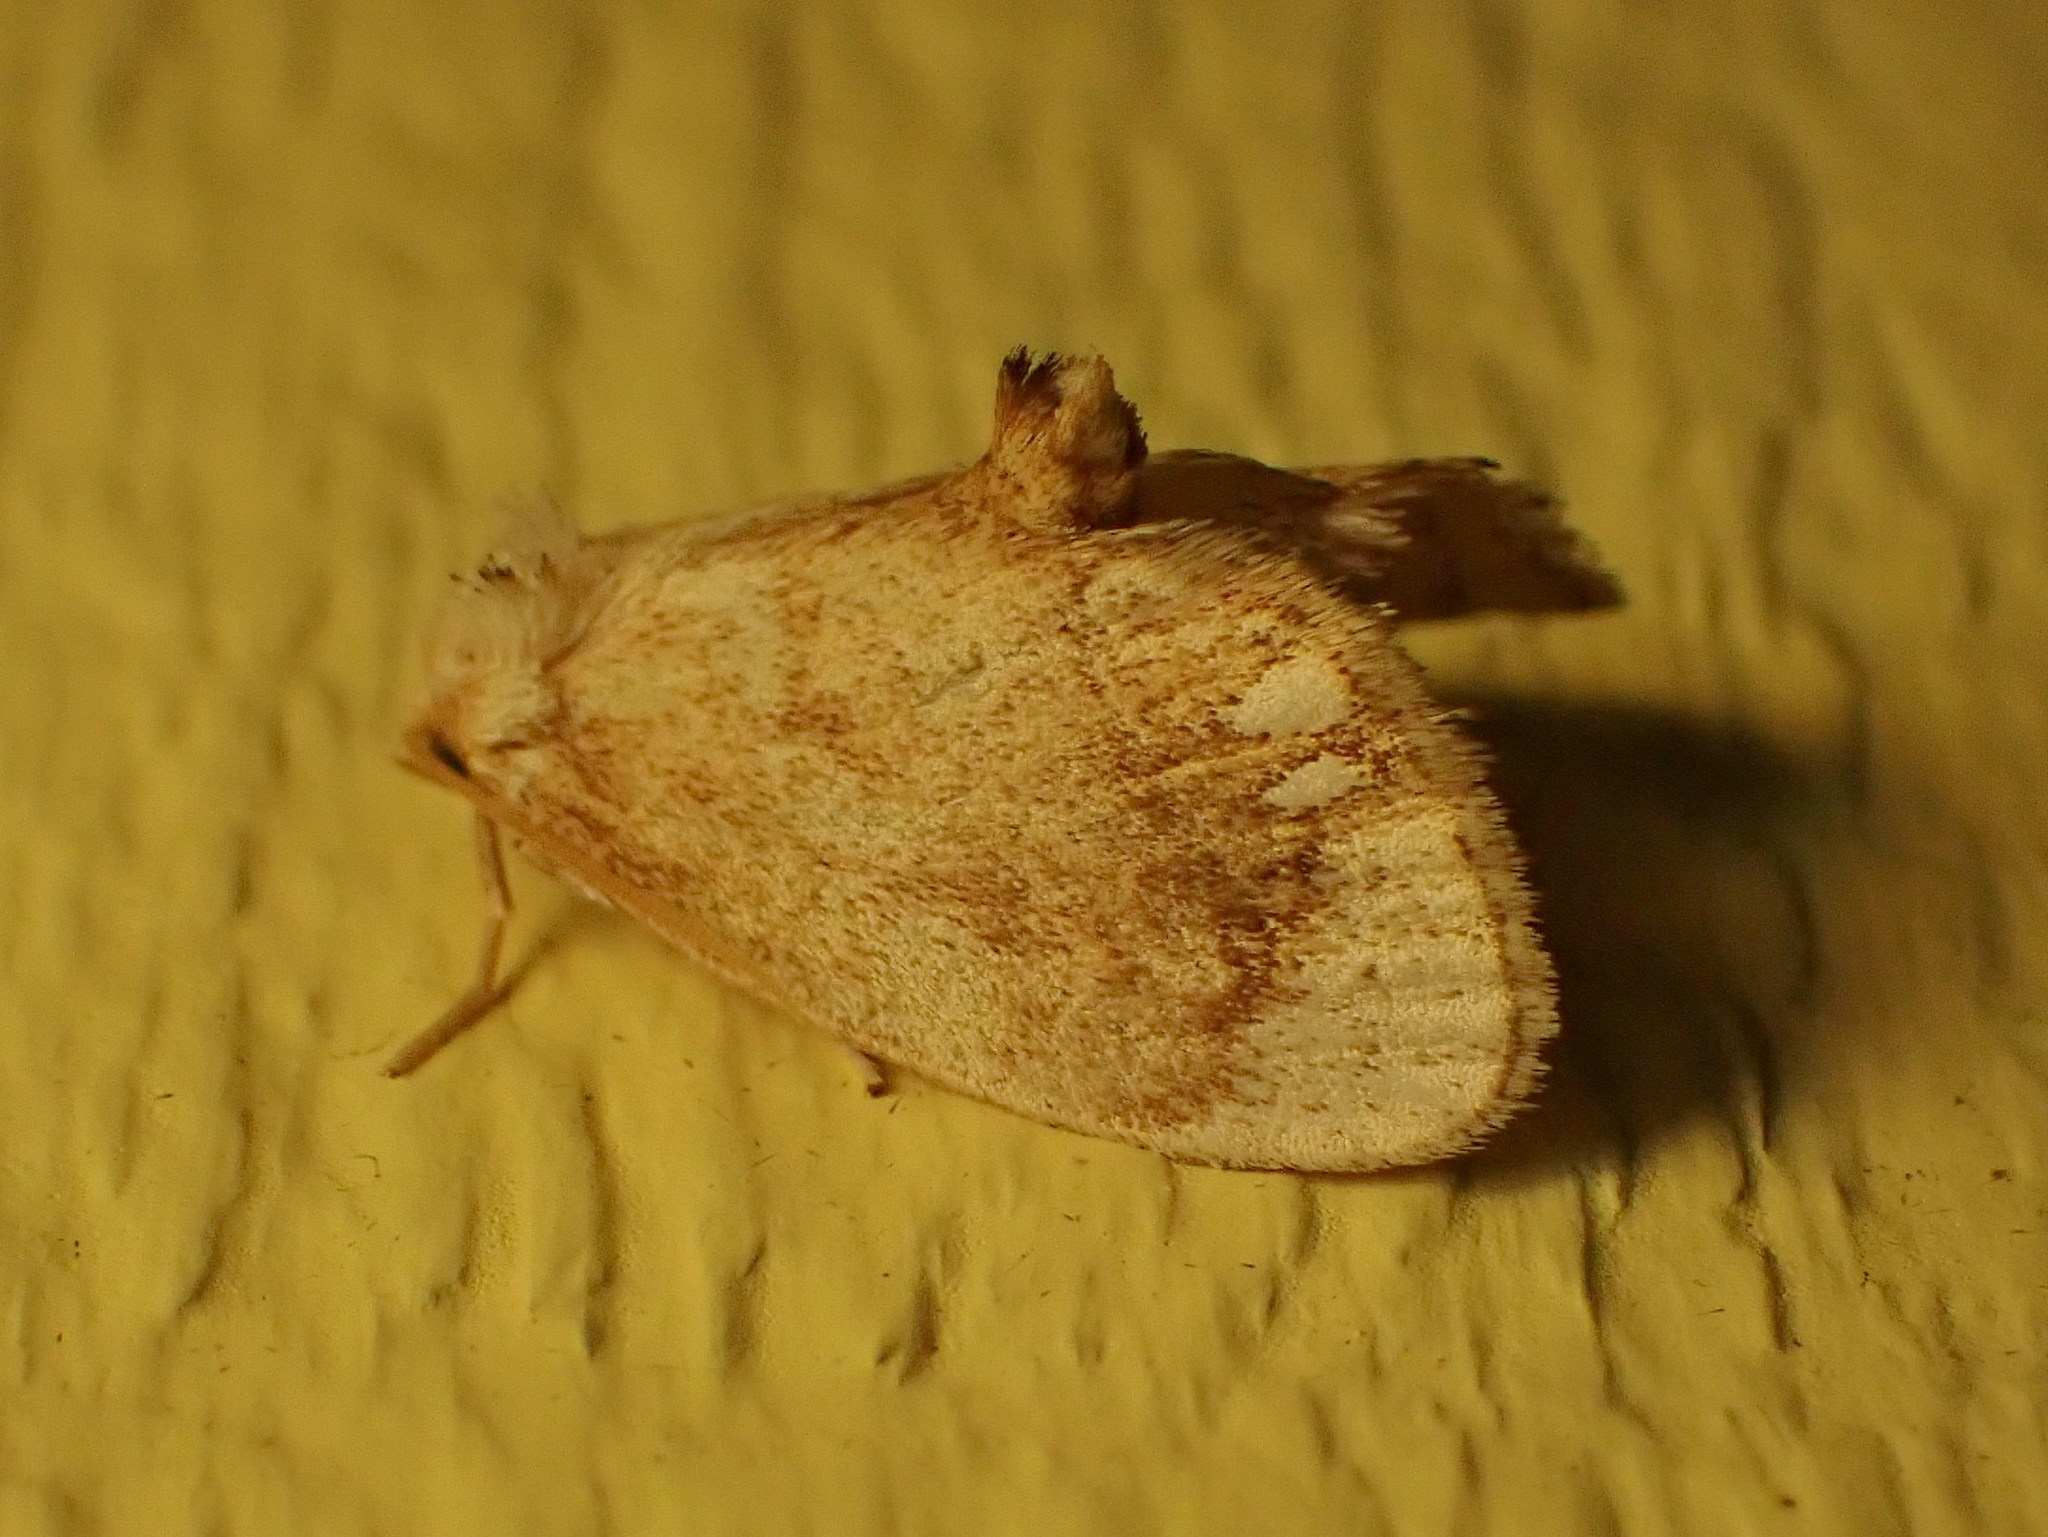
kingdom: Animalia
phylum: Arthropoda
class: Insecta
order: Lepidoptera
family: Limacodidae
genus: Packardia
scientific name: Packardia geminata
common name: Jeweled tailed slug moth
